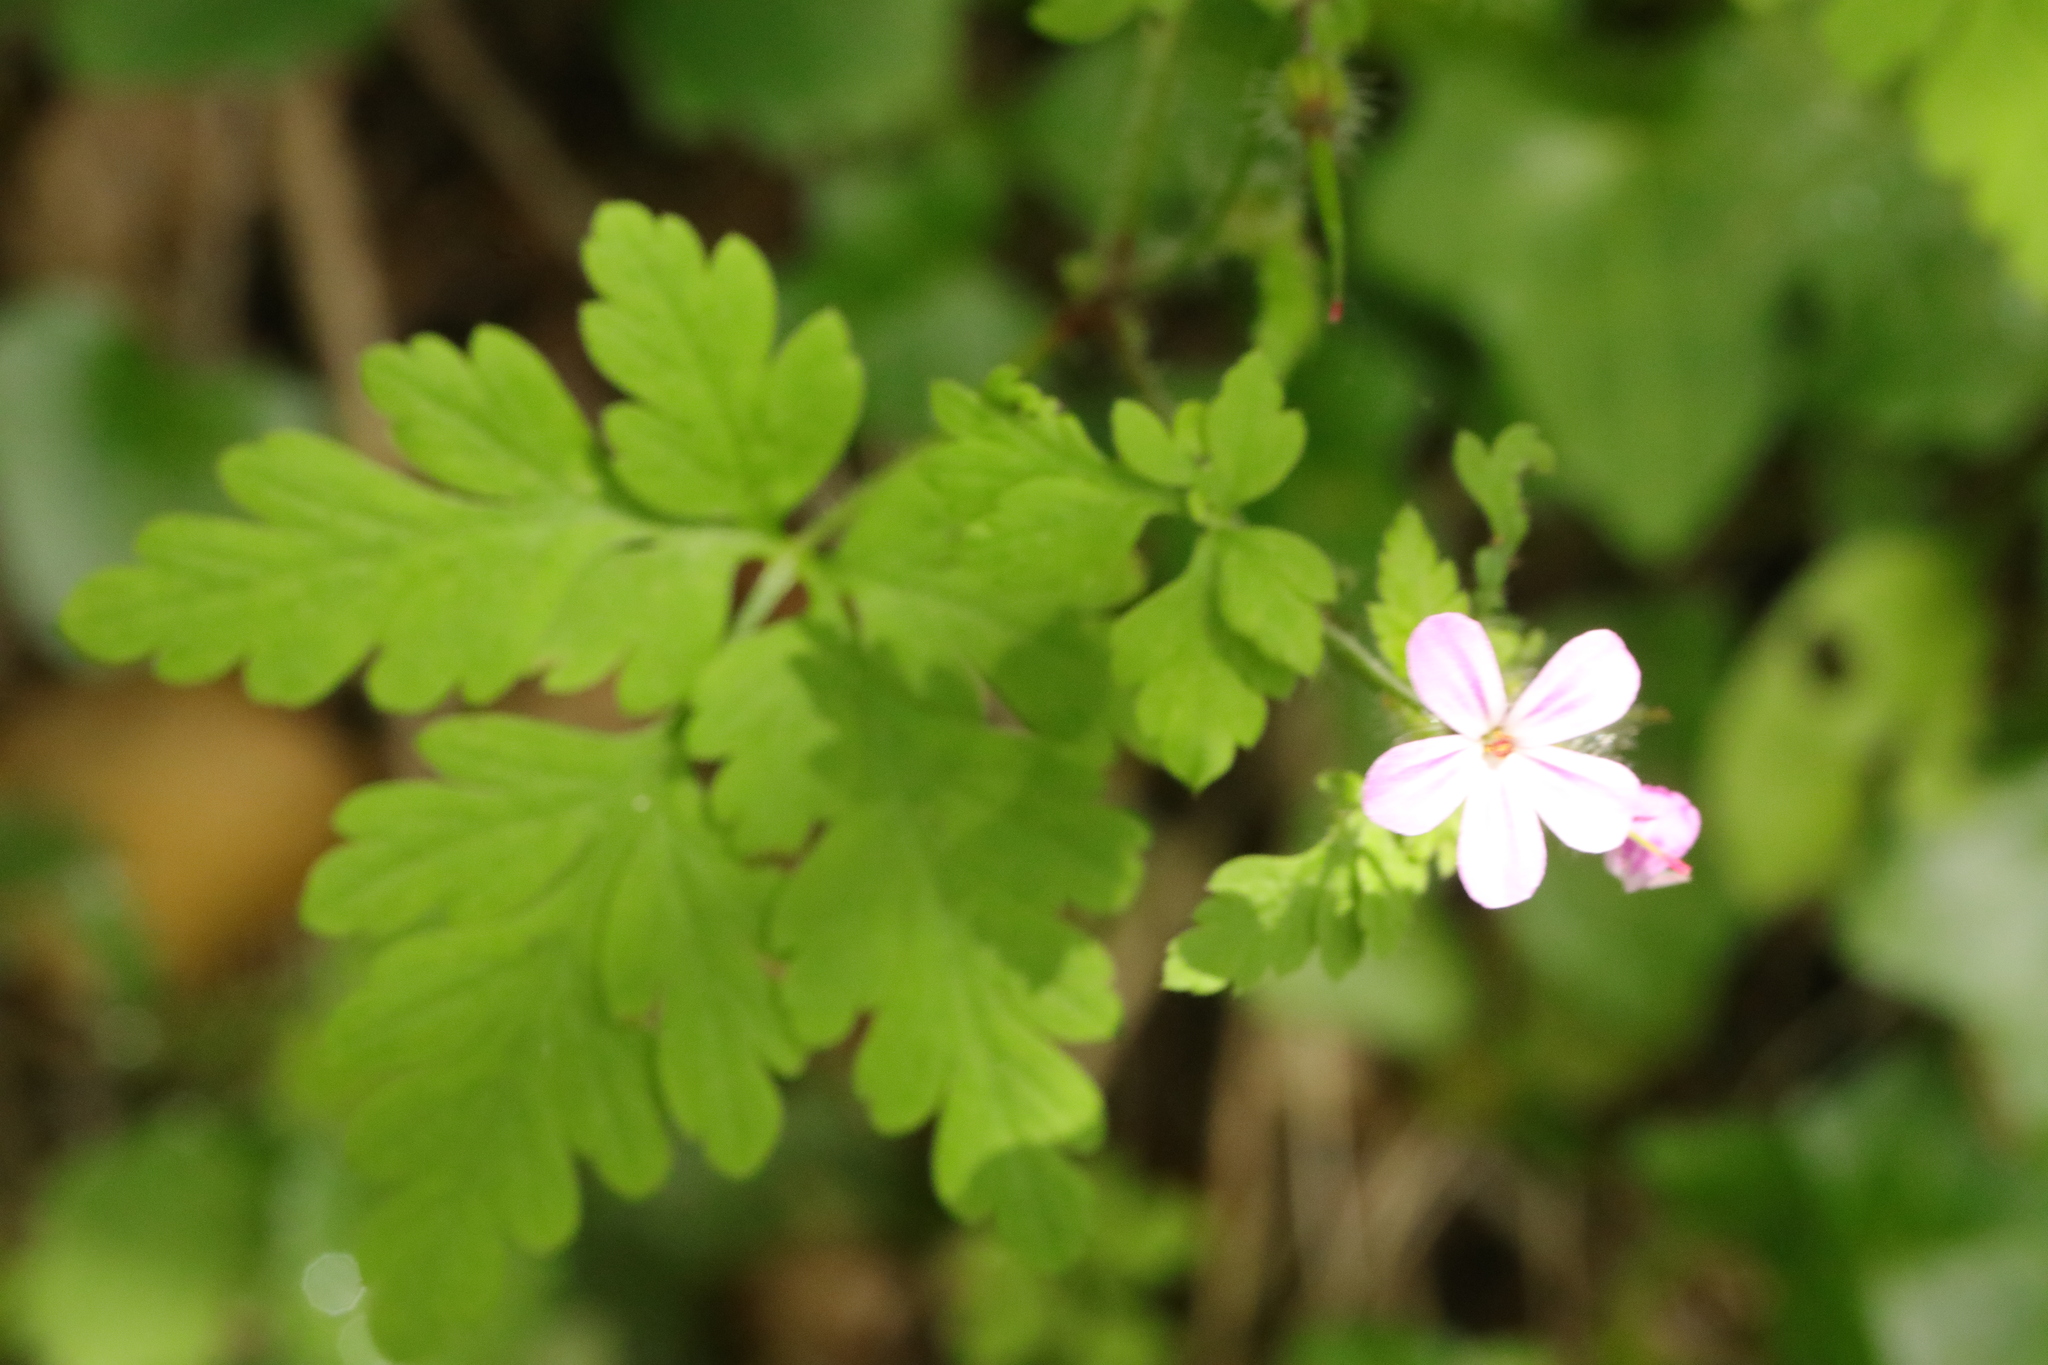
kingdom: Plantae
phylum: Tracheophyta
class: Magnoliopsida
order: Geraniales
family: Geraniaceae
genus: Geranium
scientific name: Geranium robertianum
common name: Herb-robert
